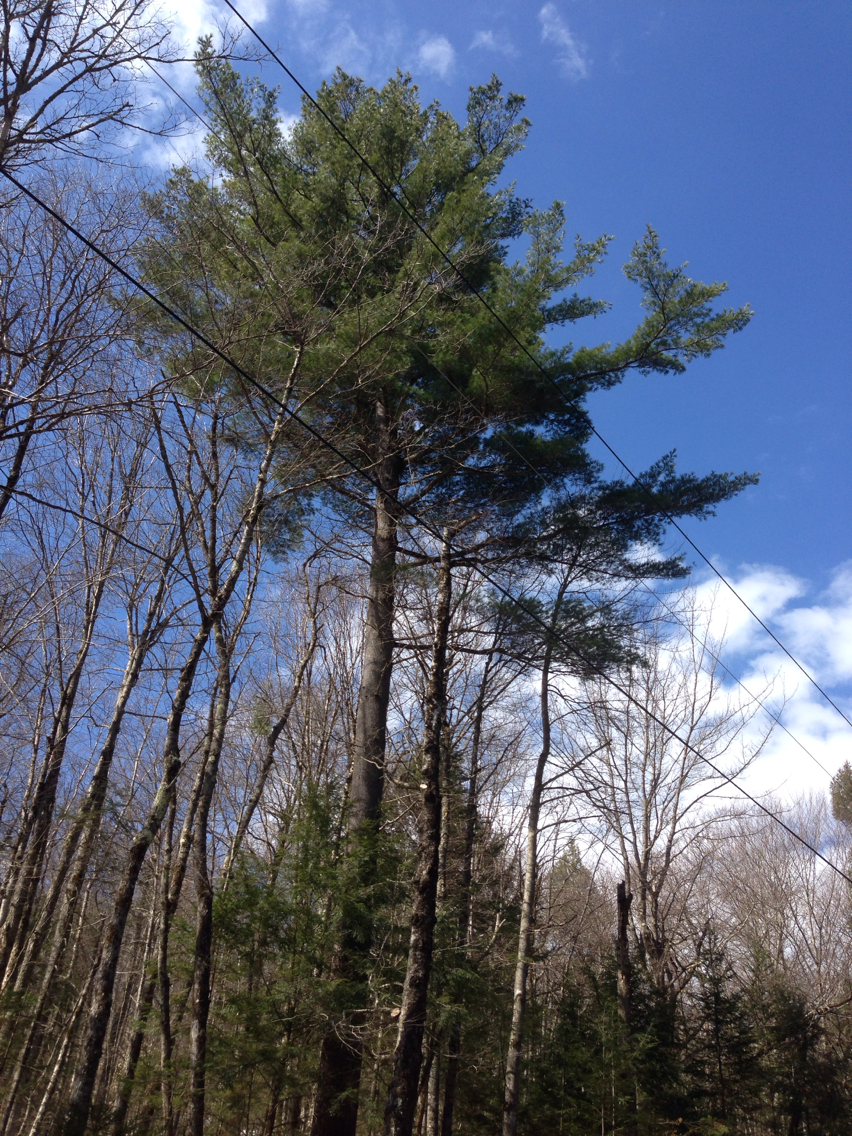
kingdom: Plantae
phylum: Tracheophyta
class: Pinopsida
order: Pinales
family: Pinaceae
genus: Pinus
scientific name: Pinus strobus
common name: Weymouth pine
